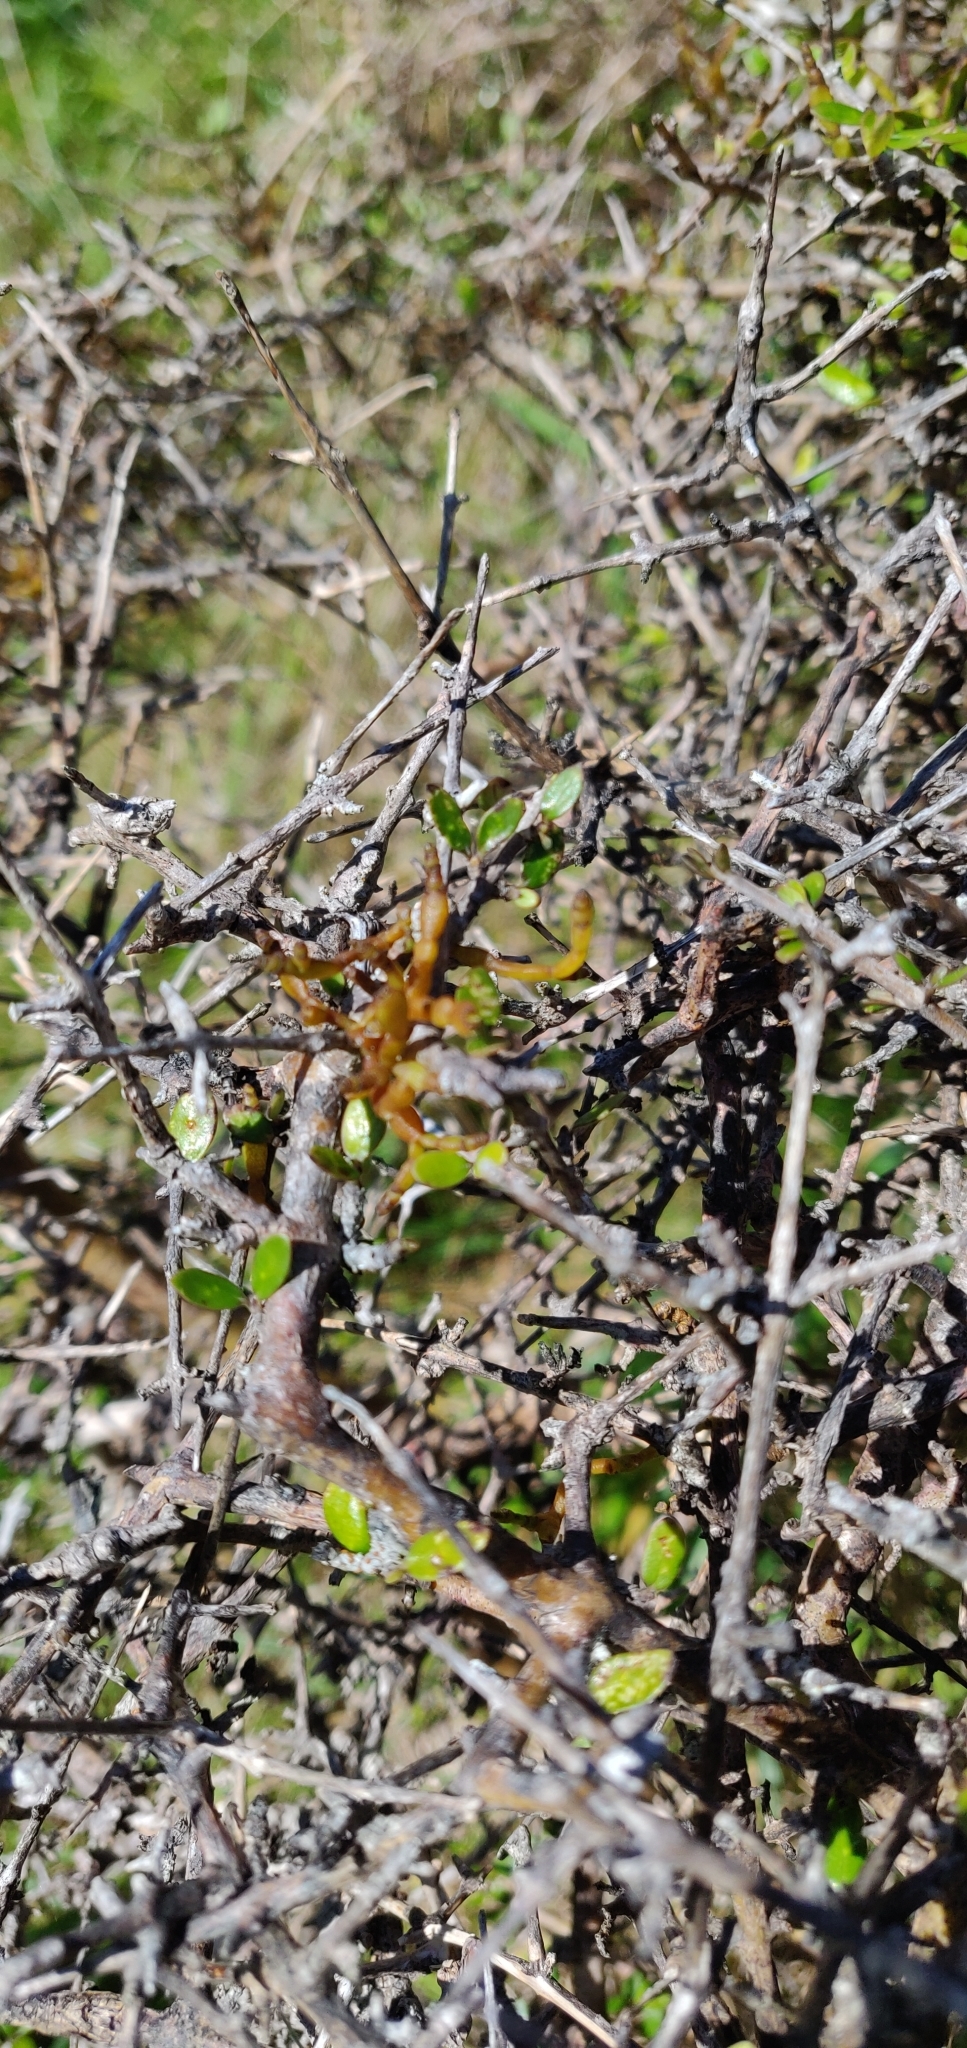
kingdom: Plantae
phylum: Tracheophyta
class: Magnoliopsida
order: Santalales
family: Viscaceae
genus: Korthalsella
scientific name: Korthalsella clavata
